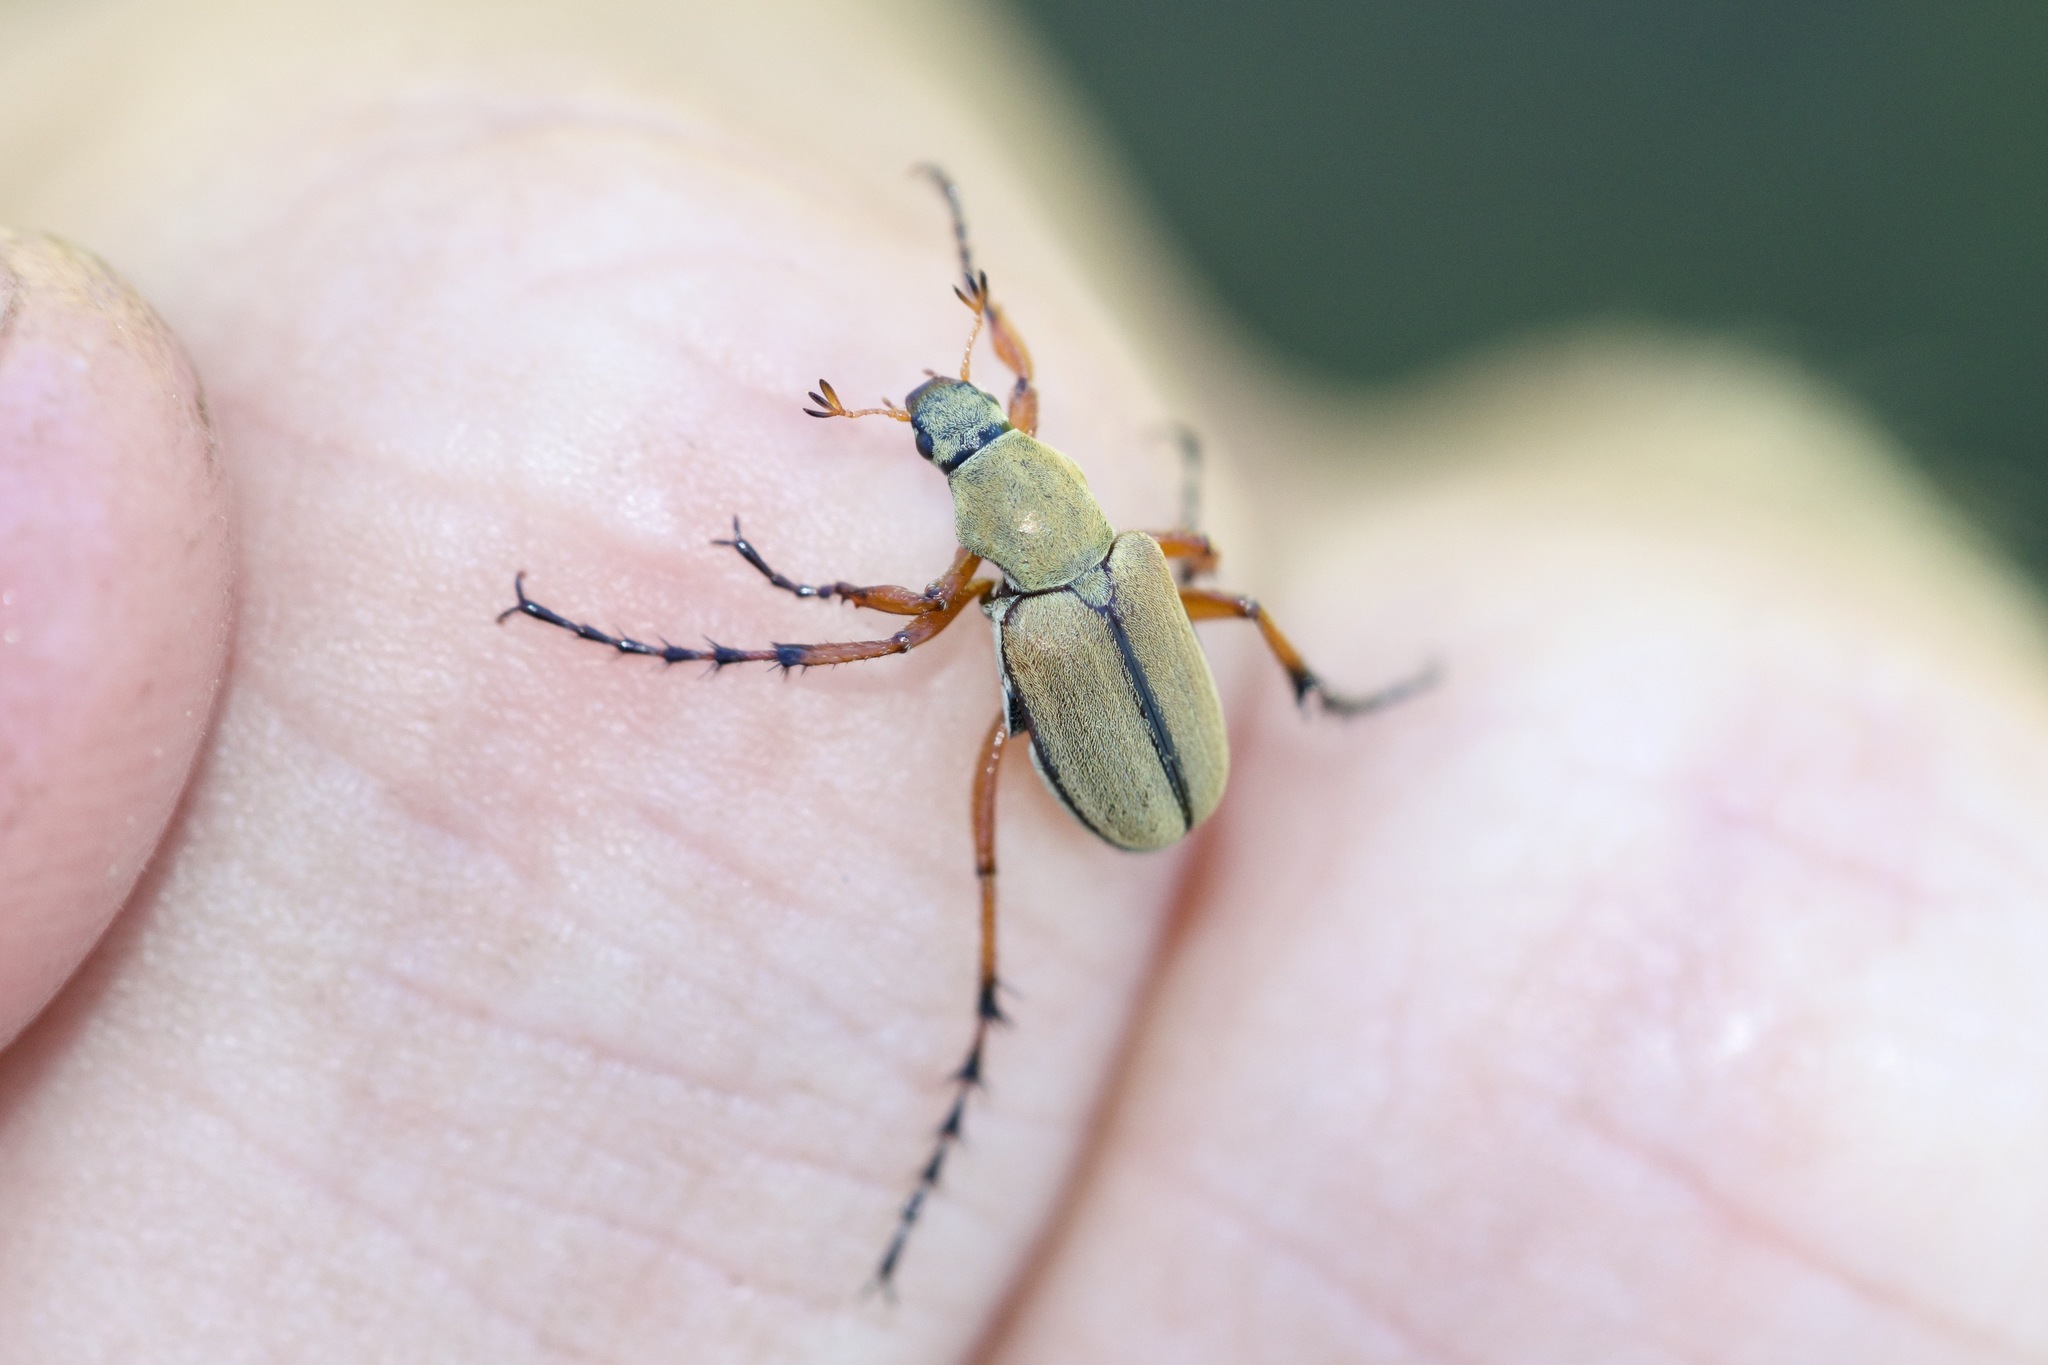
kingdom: Animalia
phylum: Arthropoda
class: Insecta
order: Coleoptera
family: Scarabaeidae
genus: Macrodactylus
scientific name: Macrodactylus subspinosus
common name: American rose chafer
